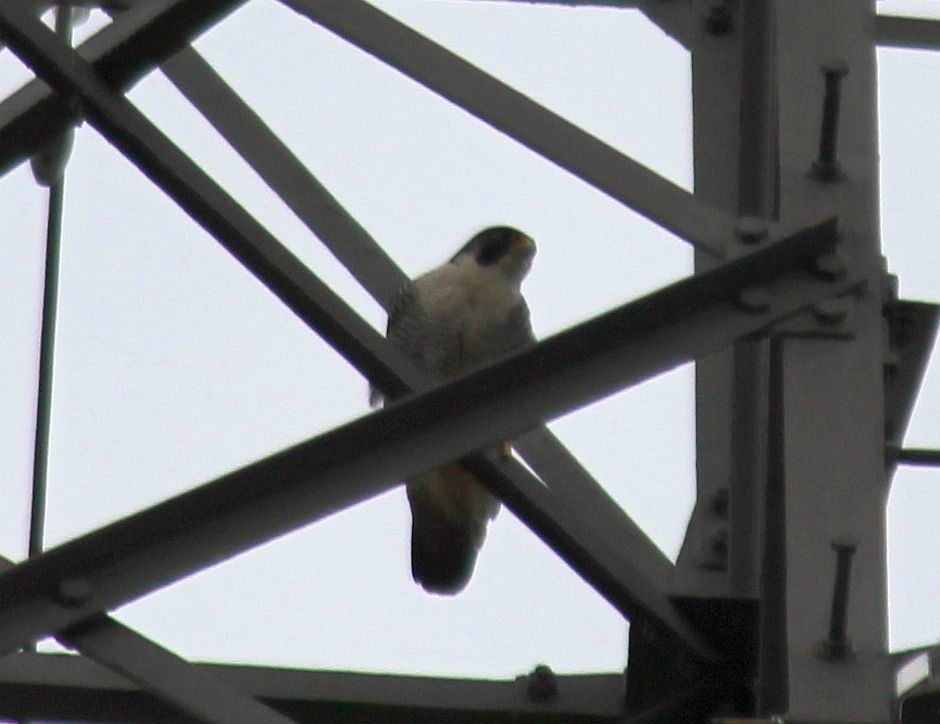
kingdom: Animalia
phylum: Chordata
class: Aves
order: Falconiformes
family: Falconidae
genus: Falco
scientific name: Falco peregrinus
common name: Peregrine falcon
